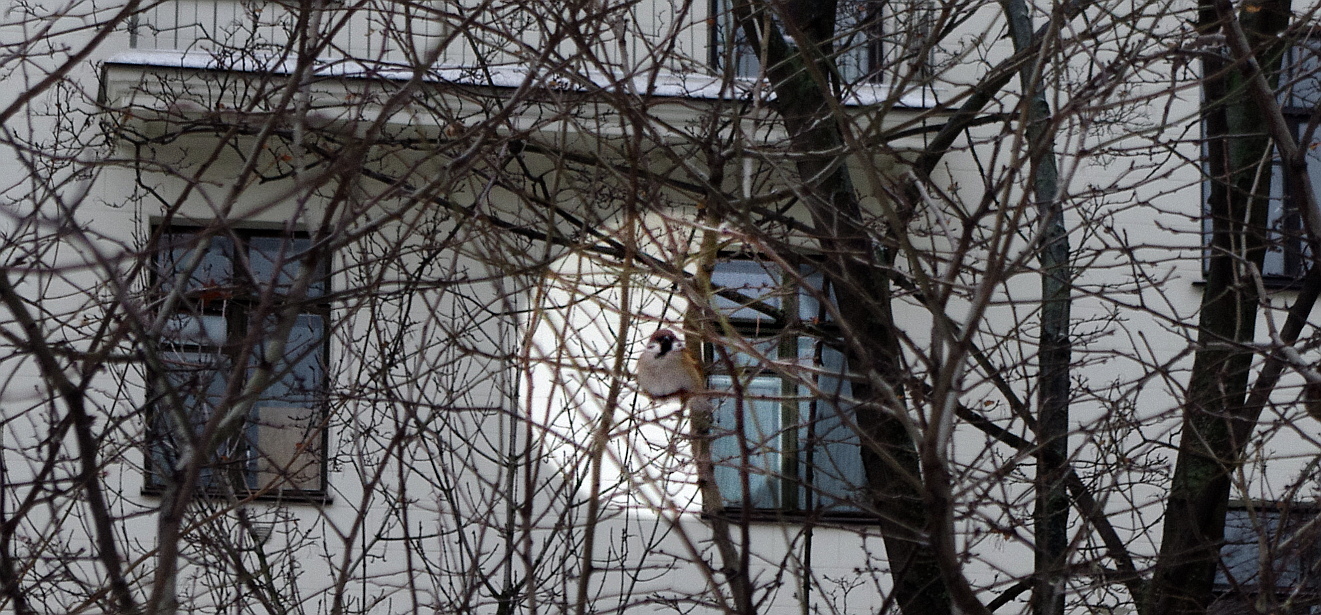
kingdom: Animalia
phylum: Chordata
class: Aves
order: Passeriformes
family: Passeridae
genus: Passer
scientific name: Passer montanus
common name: Eurasian tree sparrow
